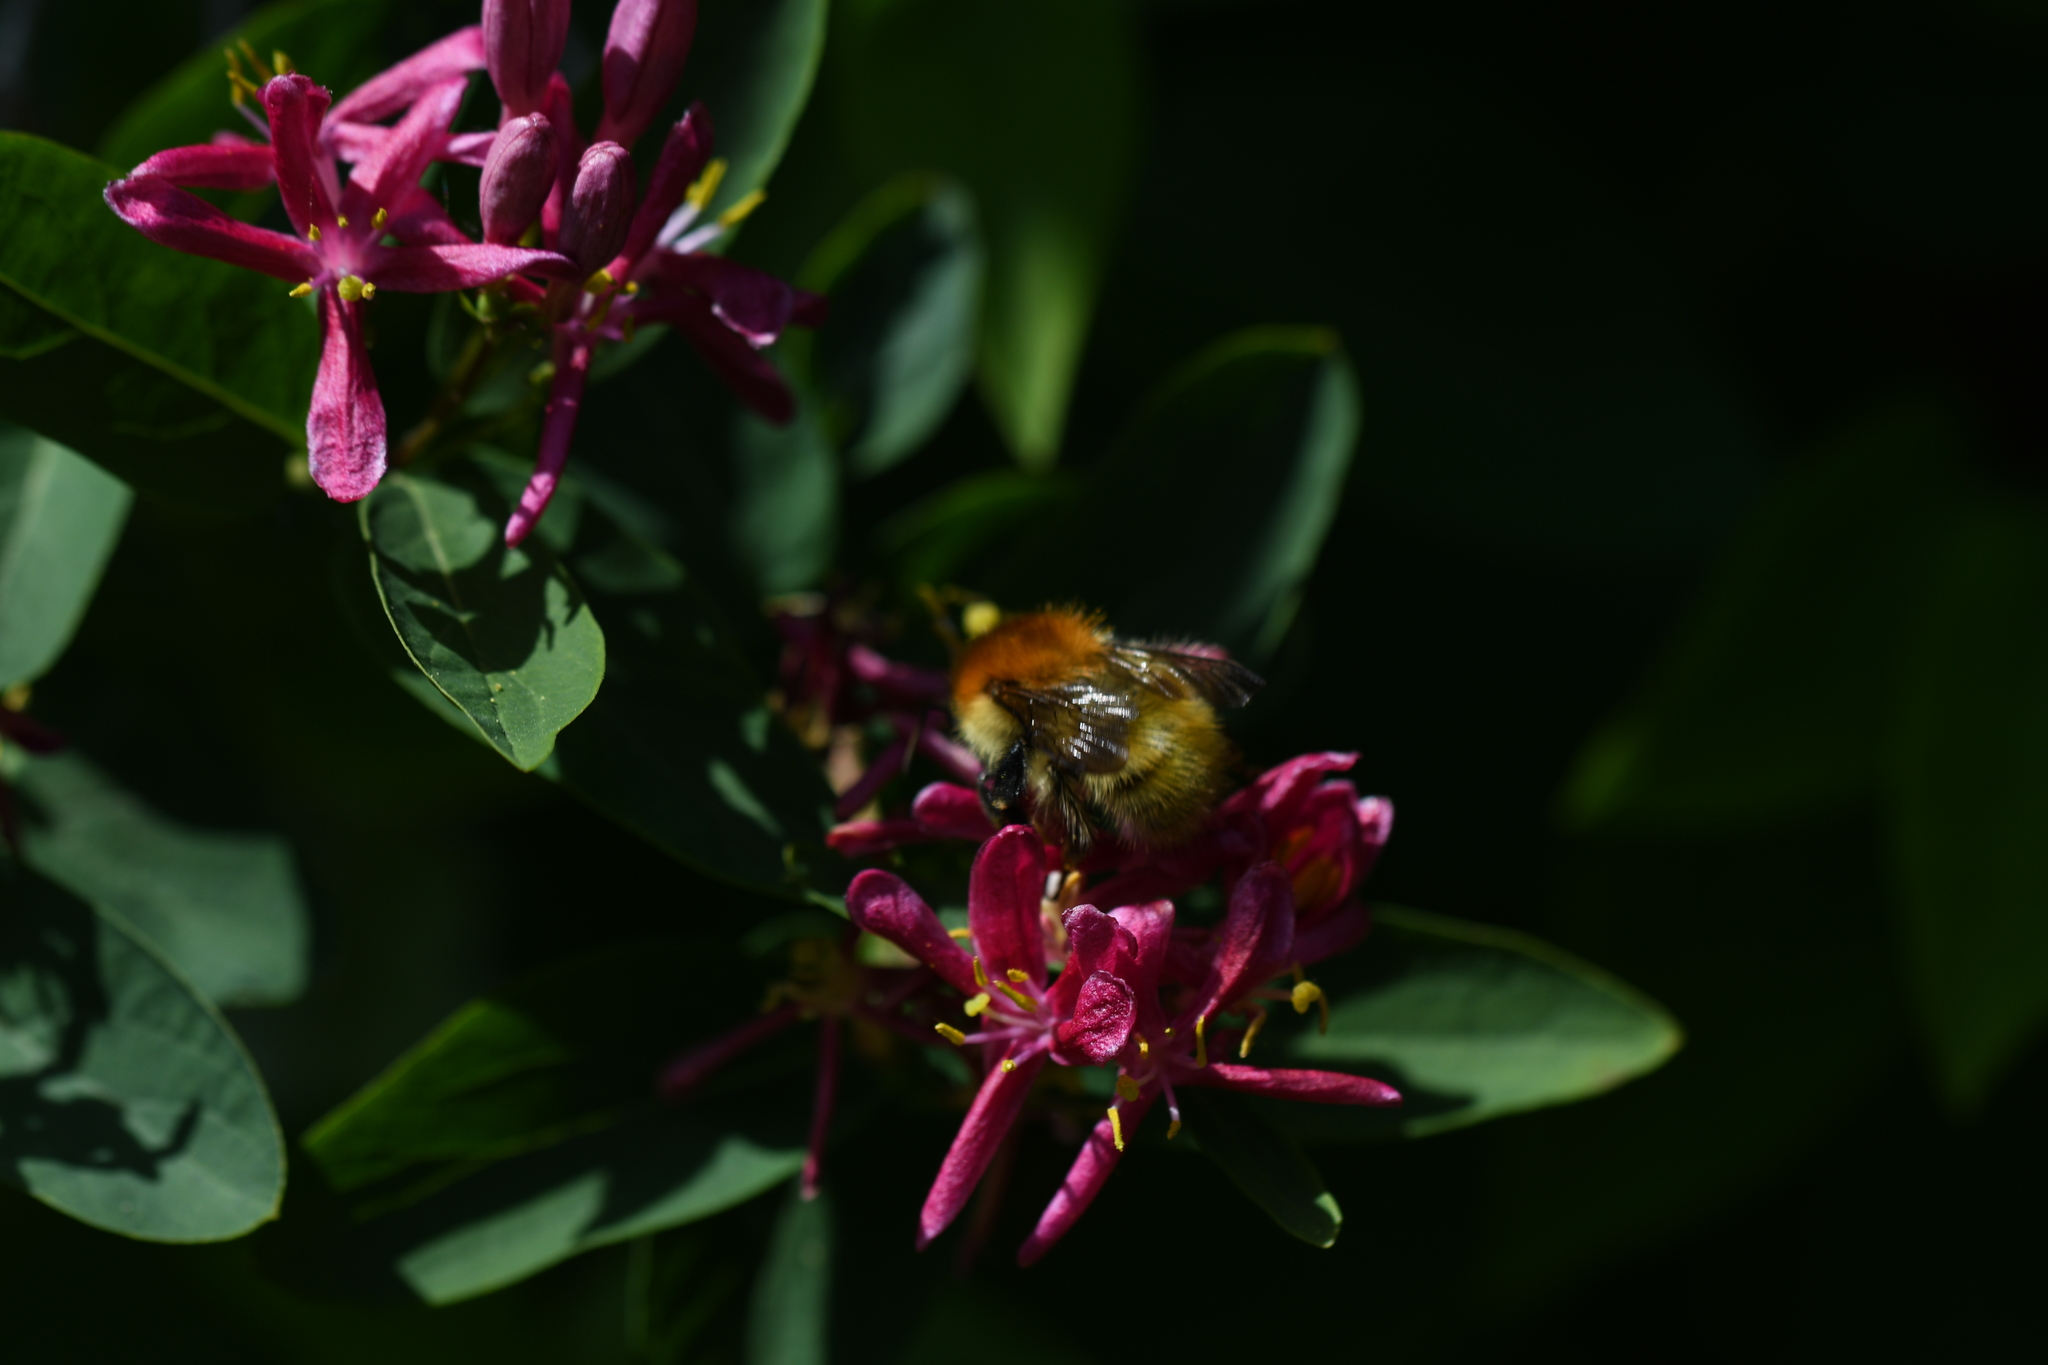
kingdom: Animalia
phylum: Arthropoda
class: Insecta
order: Hymenoptera
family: Apidae
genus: Bombus
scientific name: Bombus pascuorum
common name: Common carder bee
